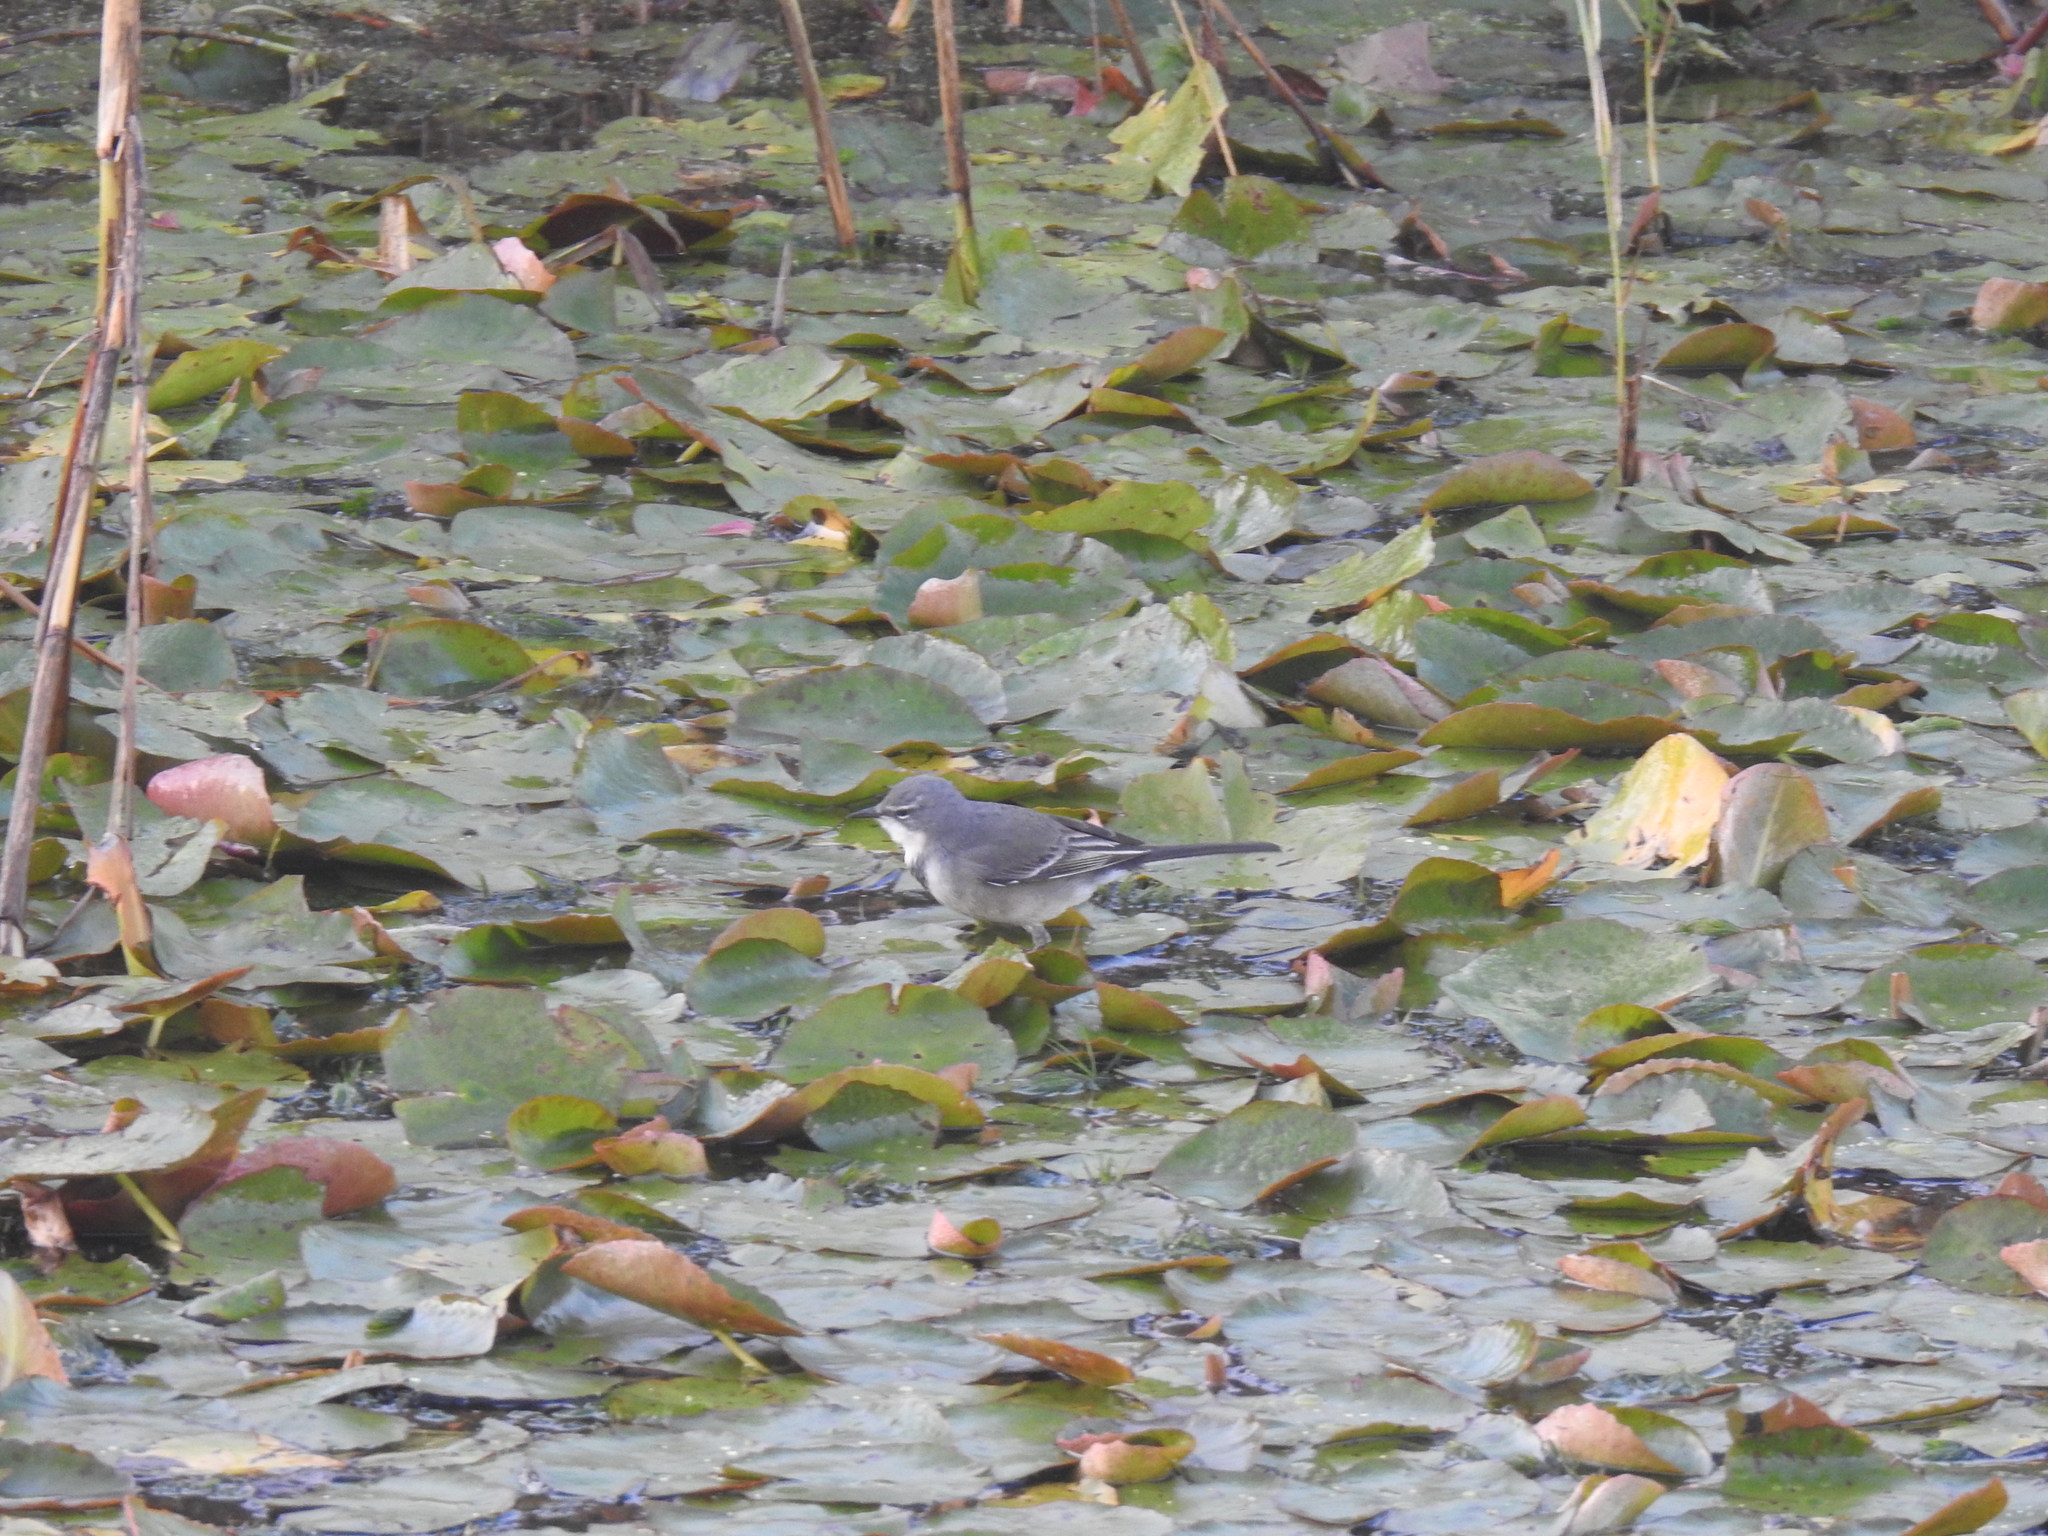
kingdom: Animalia
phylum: Chordata
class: Aves
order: Passeriformes
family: Motacillidae
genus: Motacilla
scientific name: Motacilla capensis
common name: Cape wagtail
